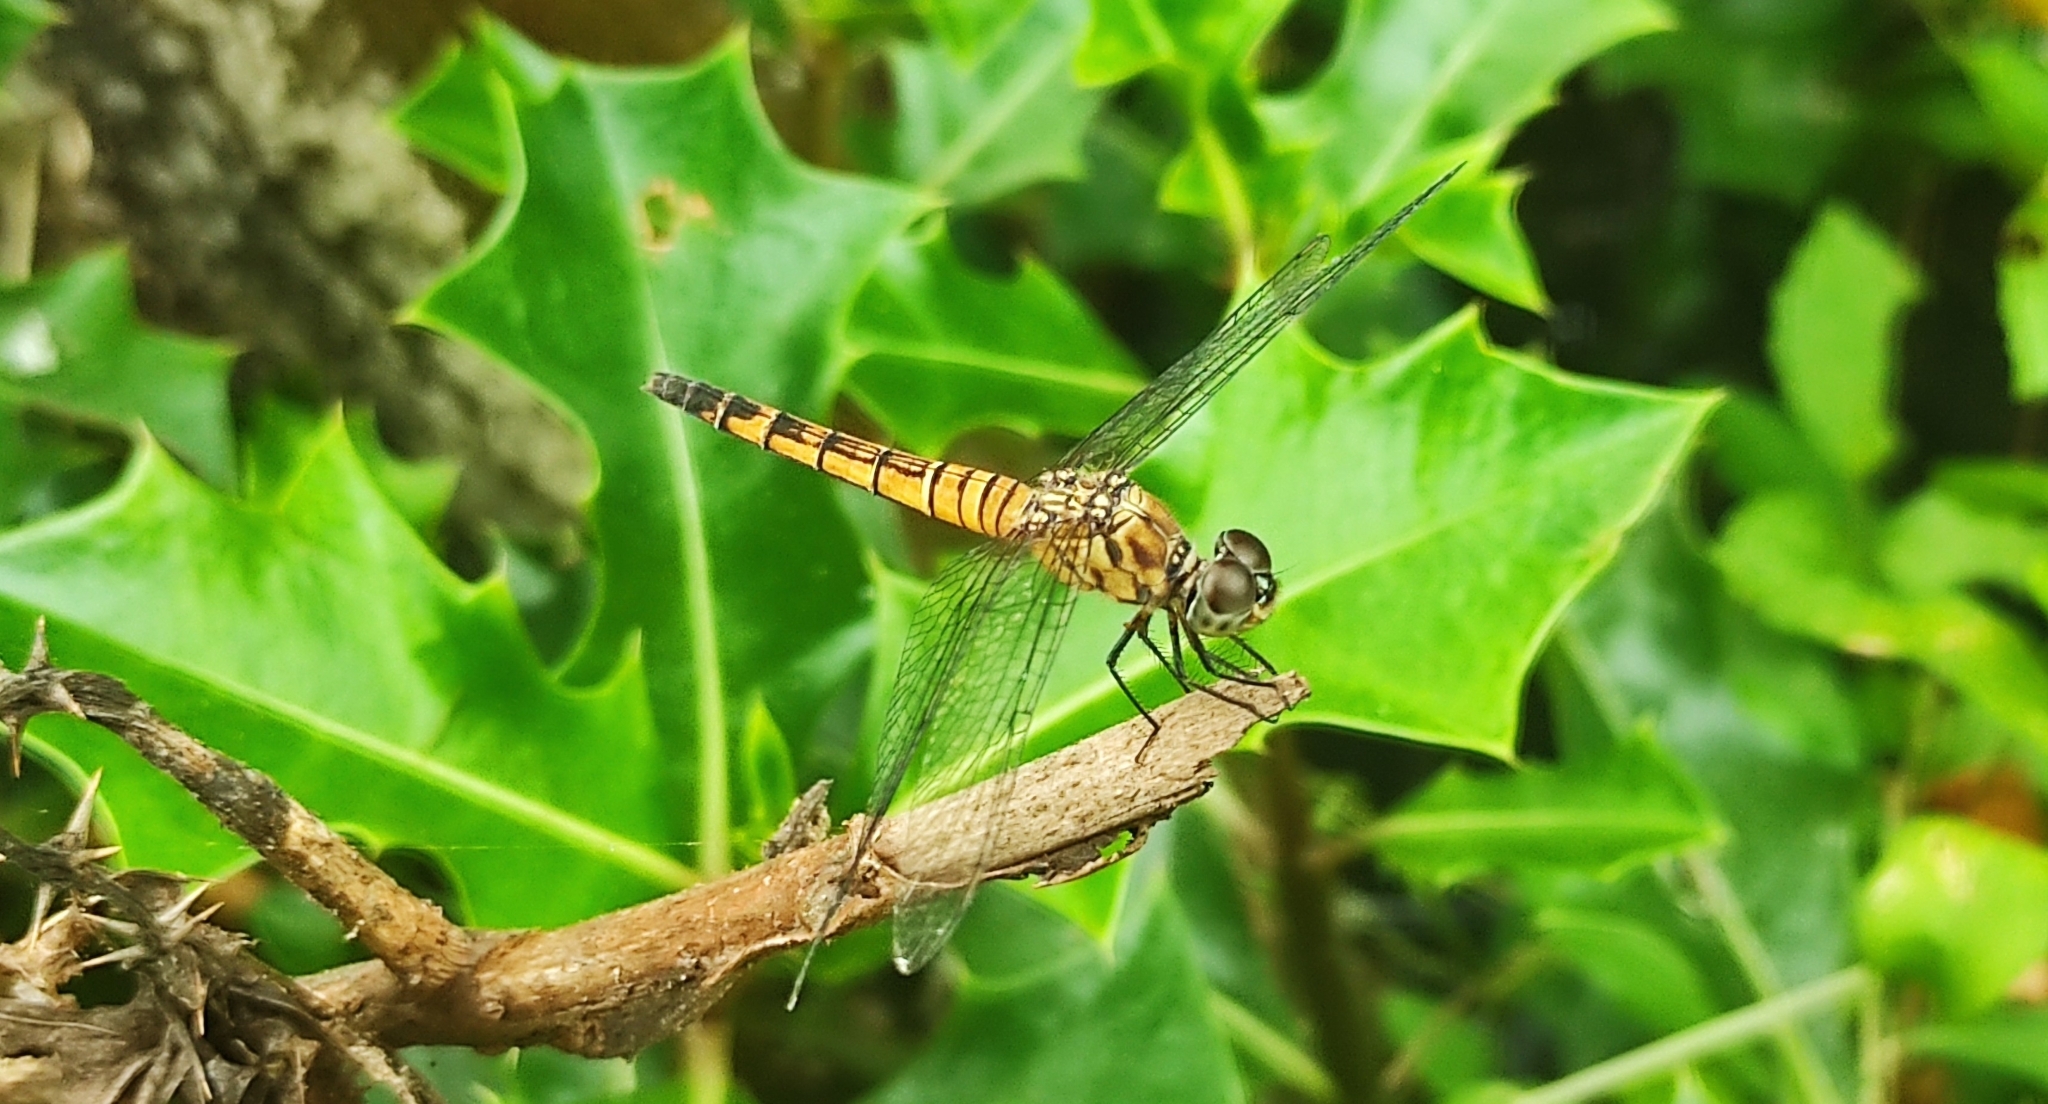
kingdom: Animalia
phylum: Arthropoda
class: Insecta
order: Odonata
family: Libellulidae
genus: Brachydiplax
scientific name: Brachydiplax chalybea
